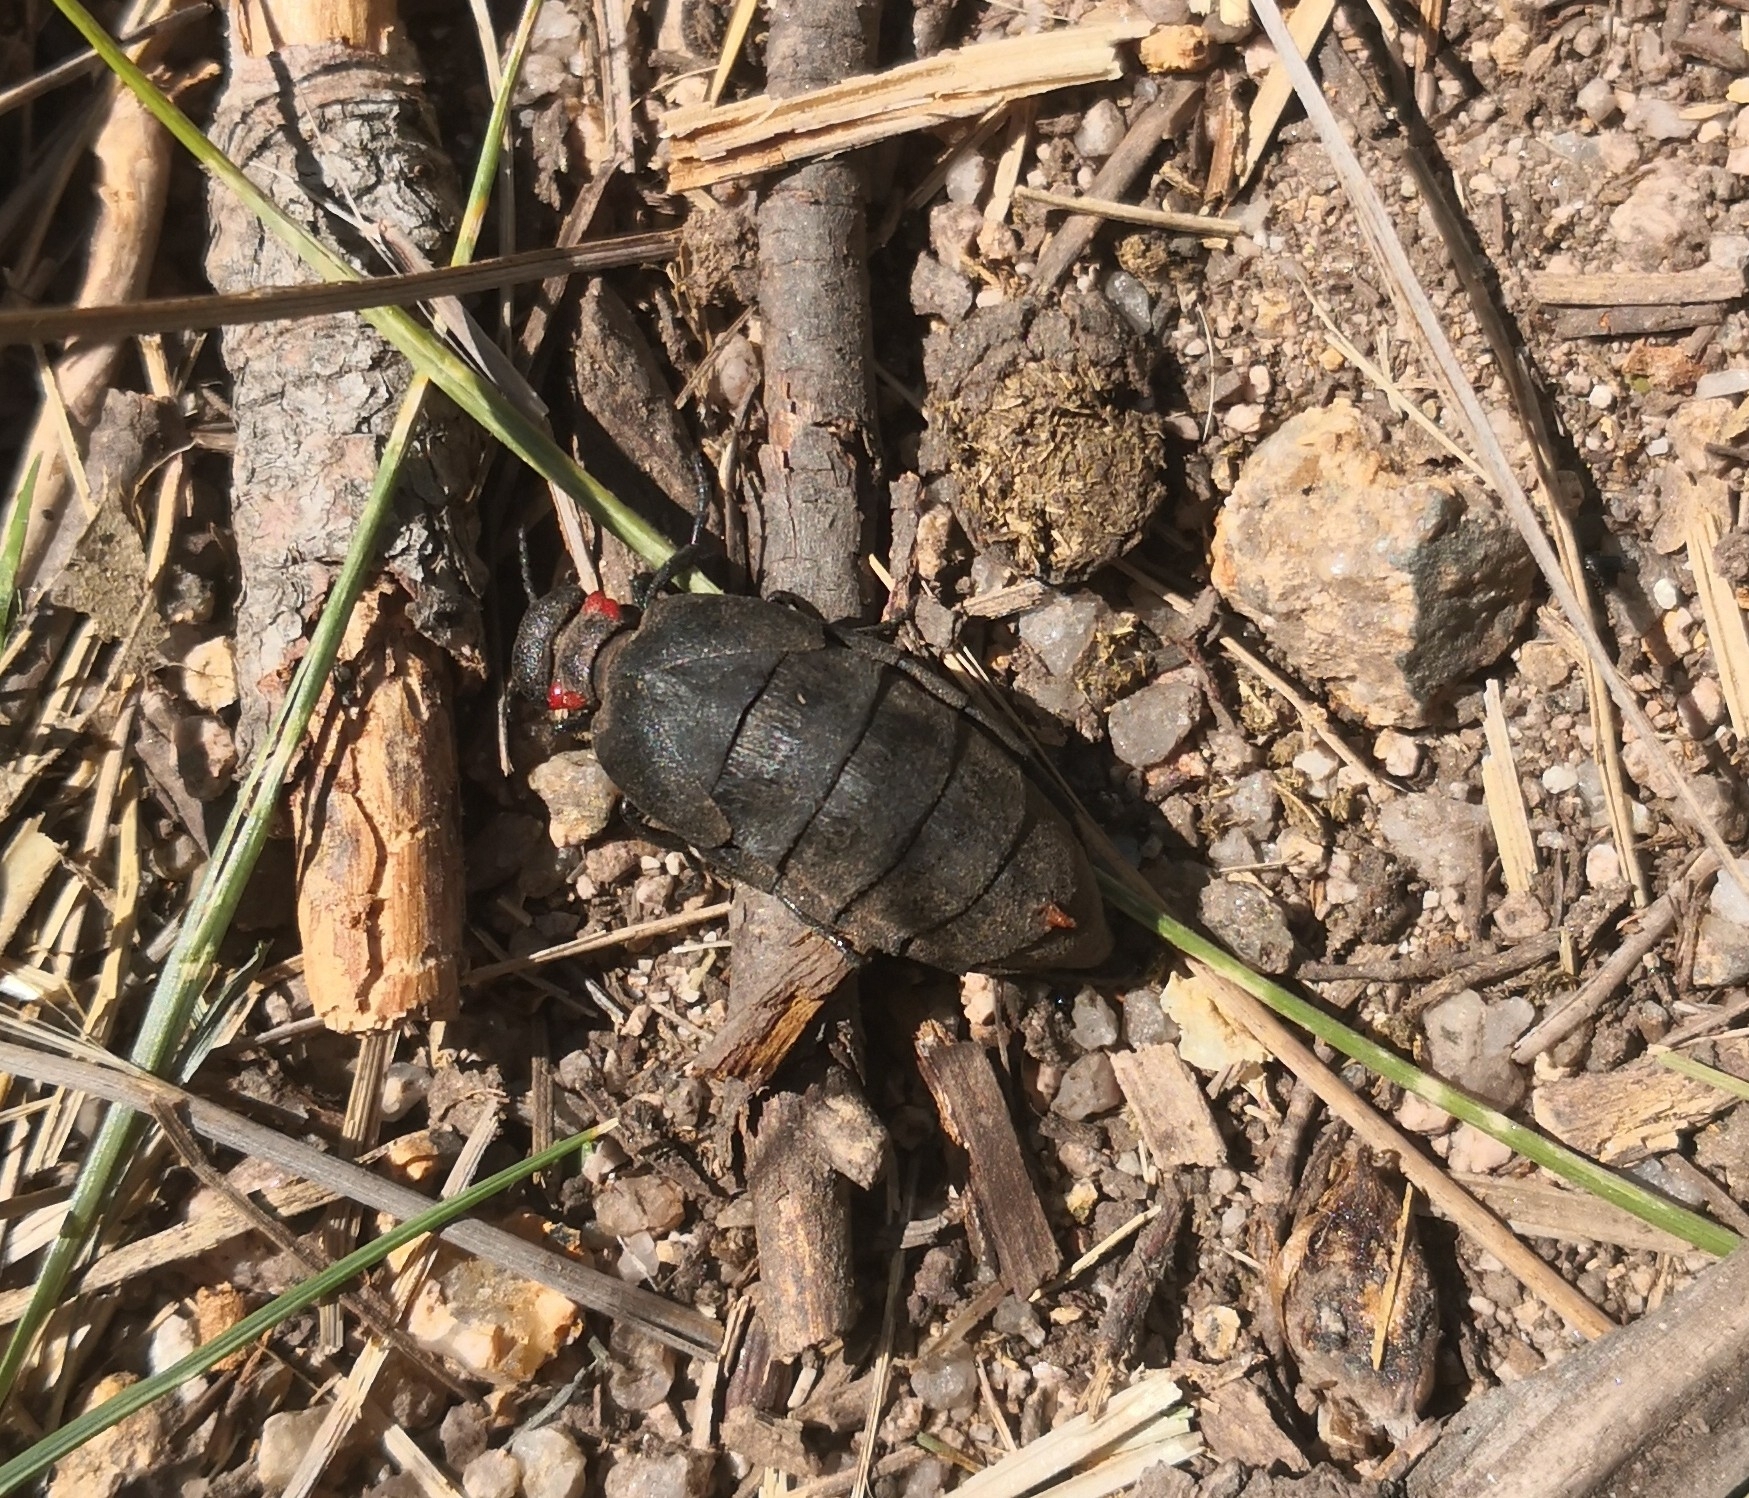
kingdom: Animalia
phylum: Arthropoda
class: Insecta
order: Coleoptera
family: Meloidae
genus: Physomeloe
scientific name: Physomeloe corallifer
